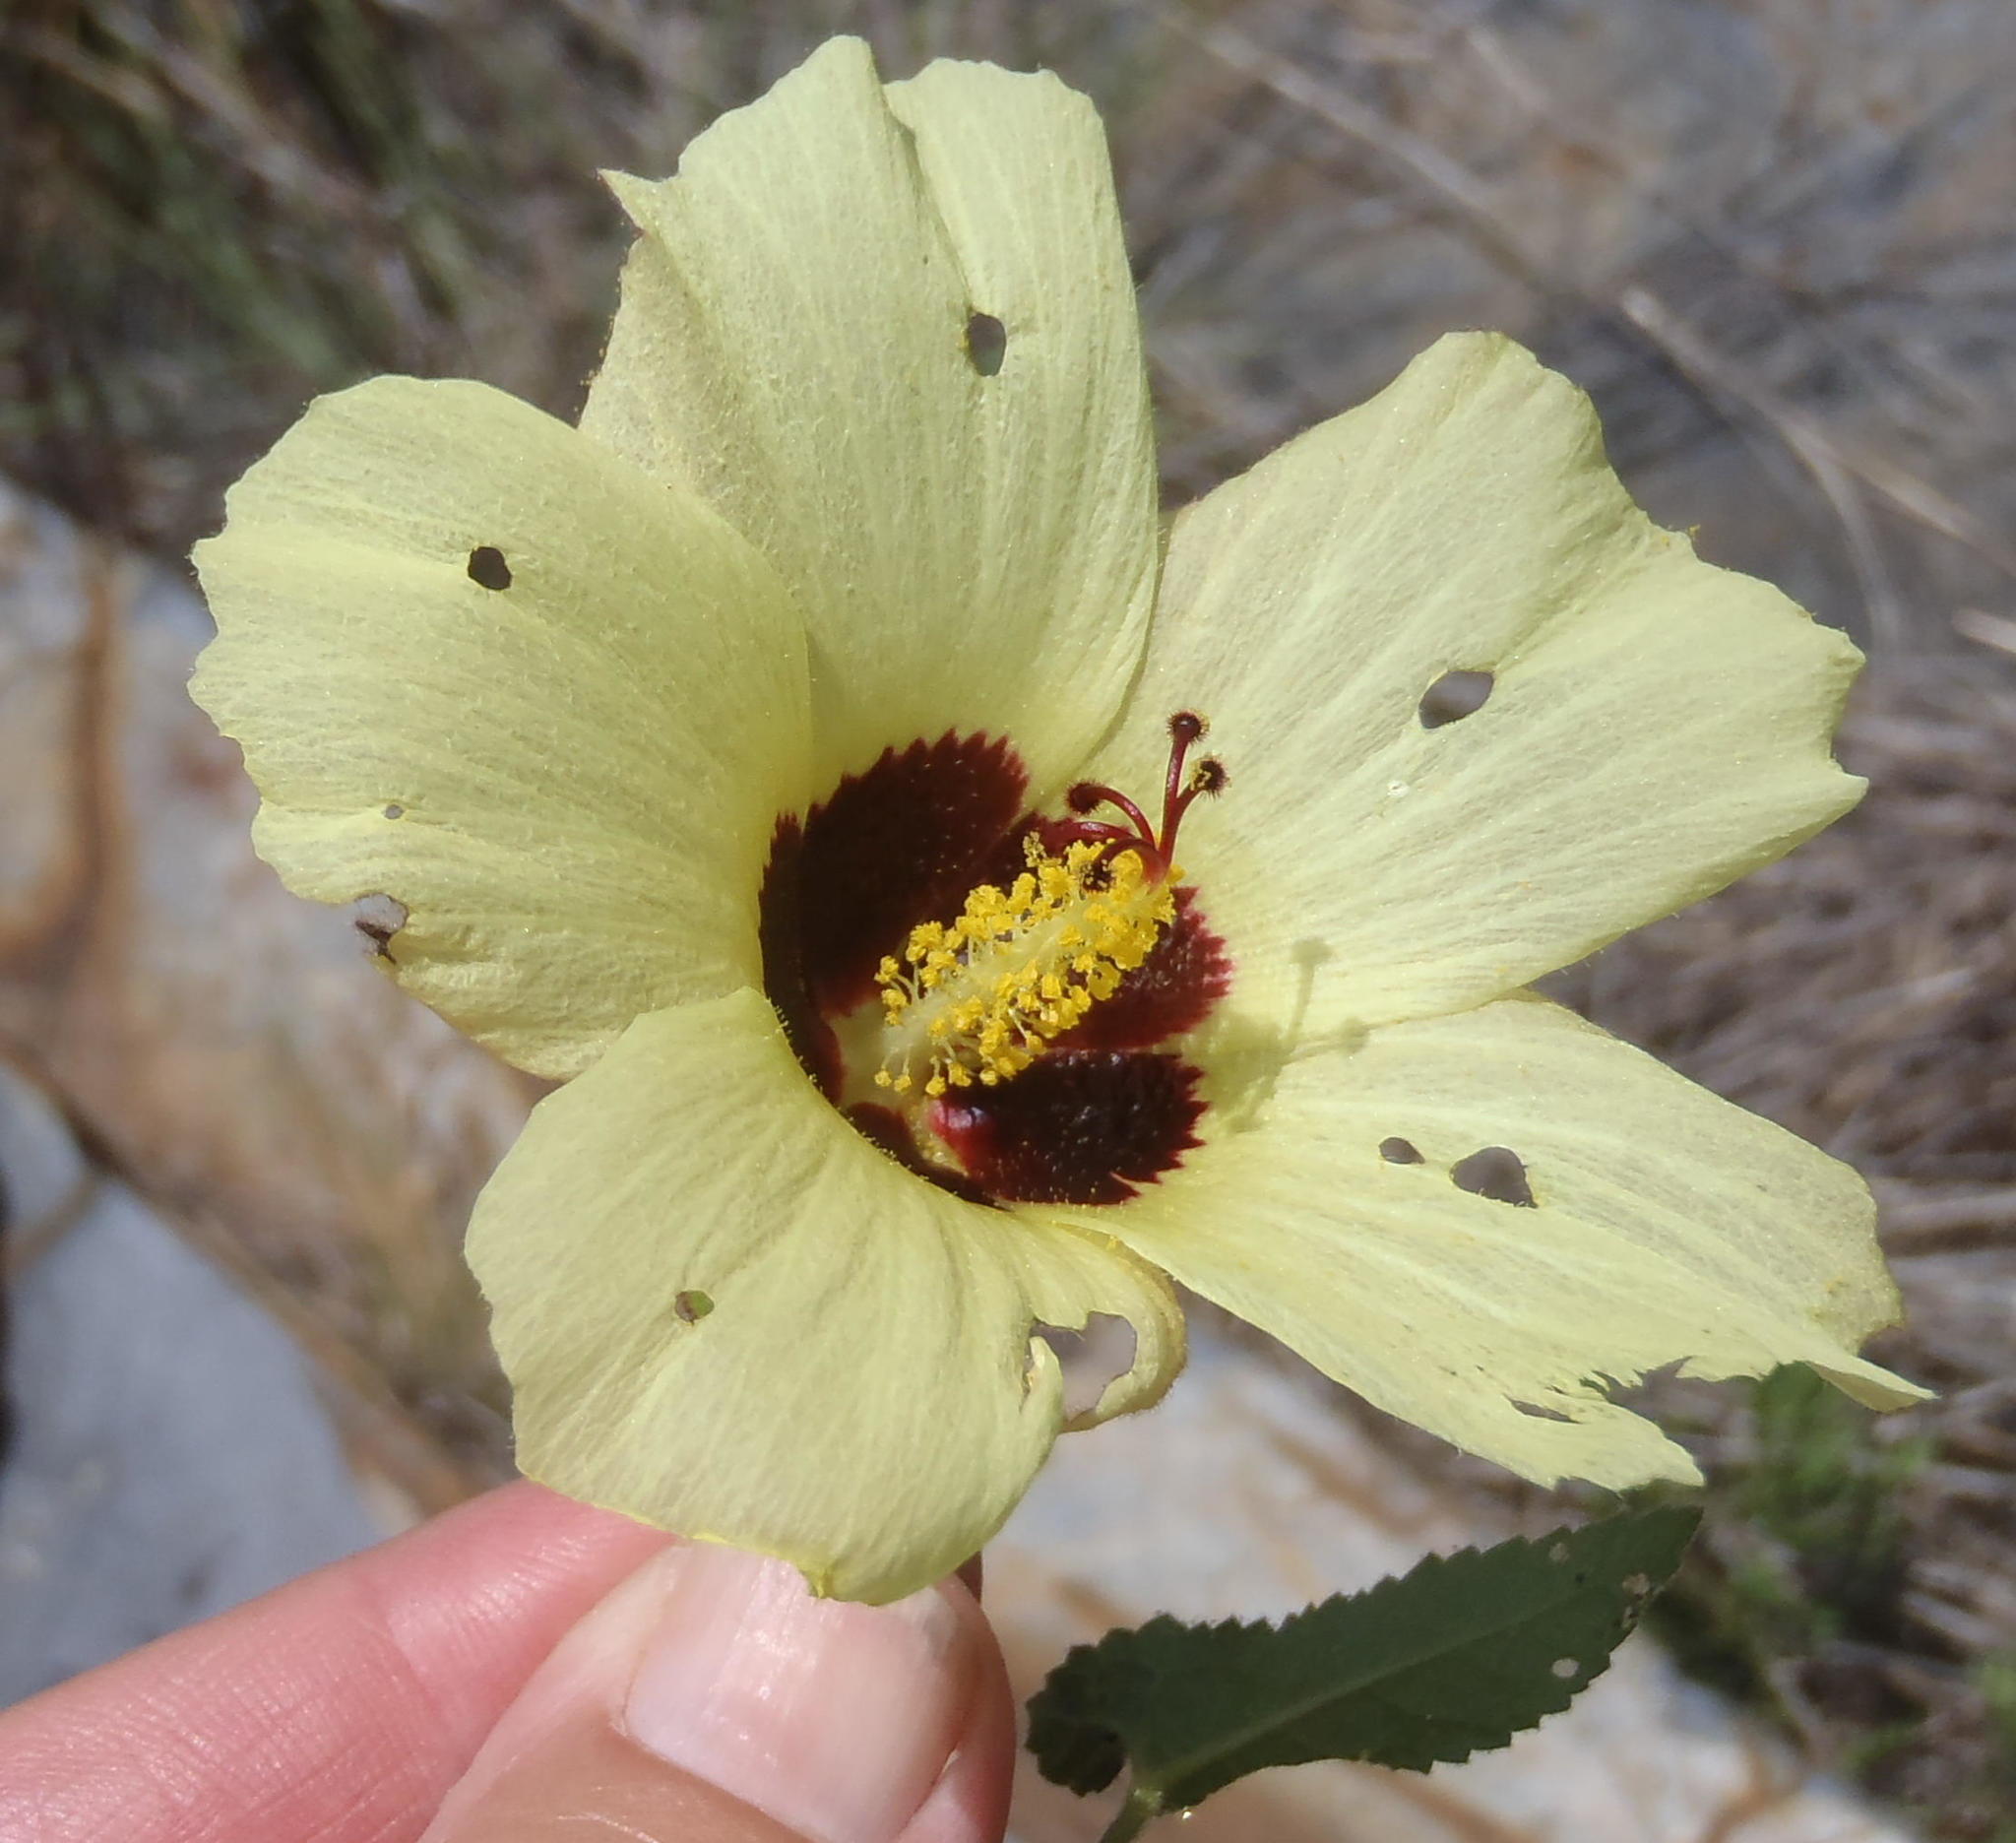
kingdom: Plantae
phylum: Tracheophyta
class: Magnoliopsida
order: Malvales
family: Malvaceae
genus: Hibiscus
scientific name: Hibiscus engleri
